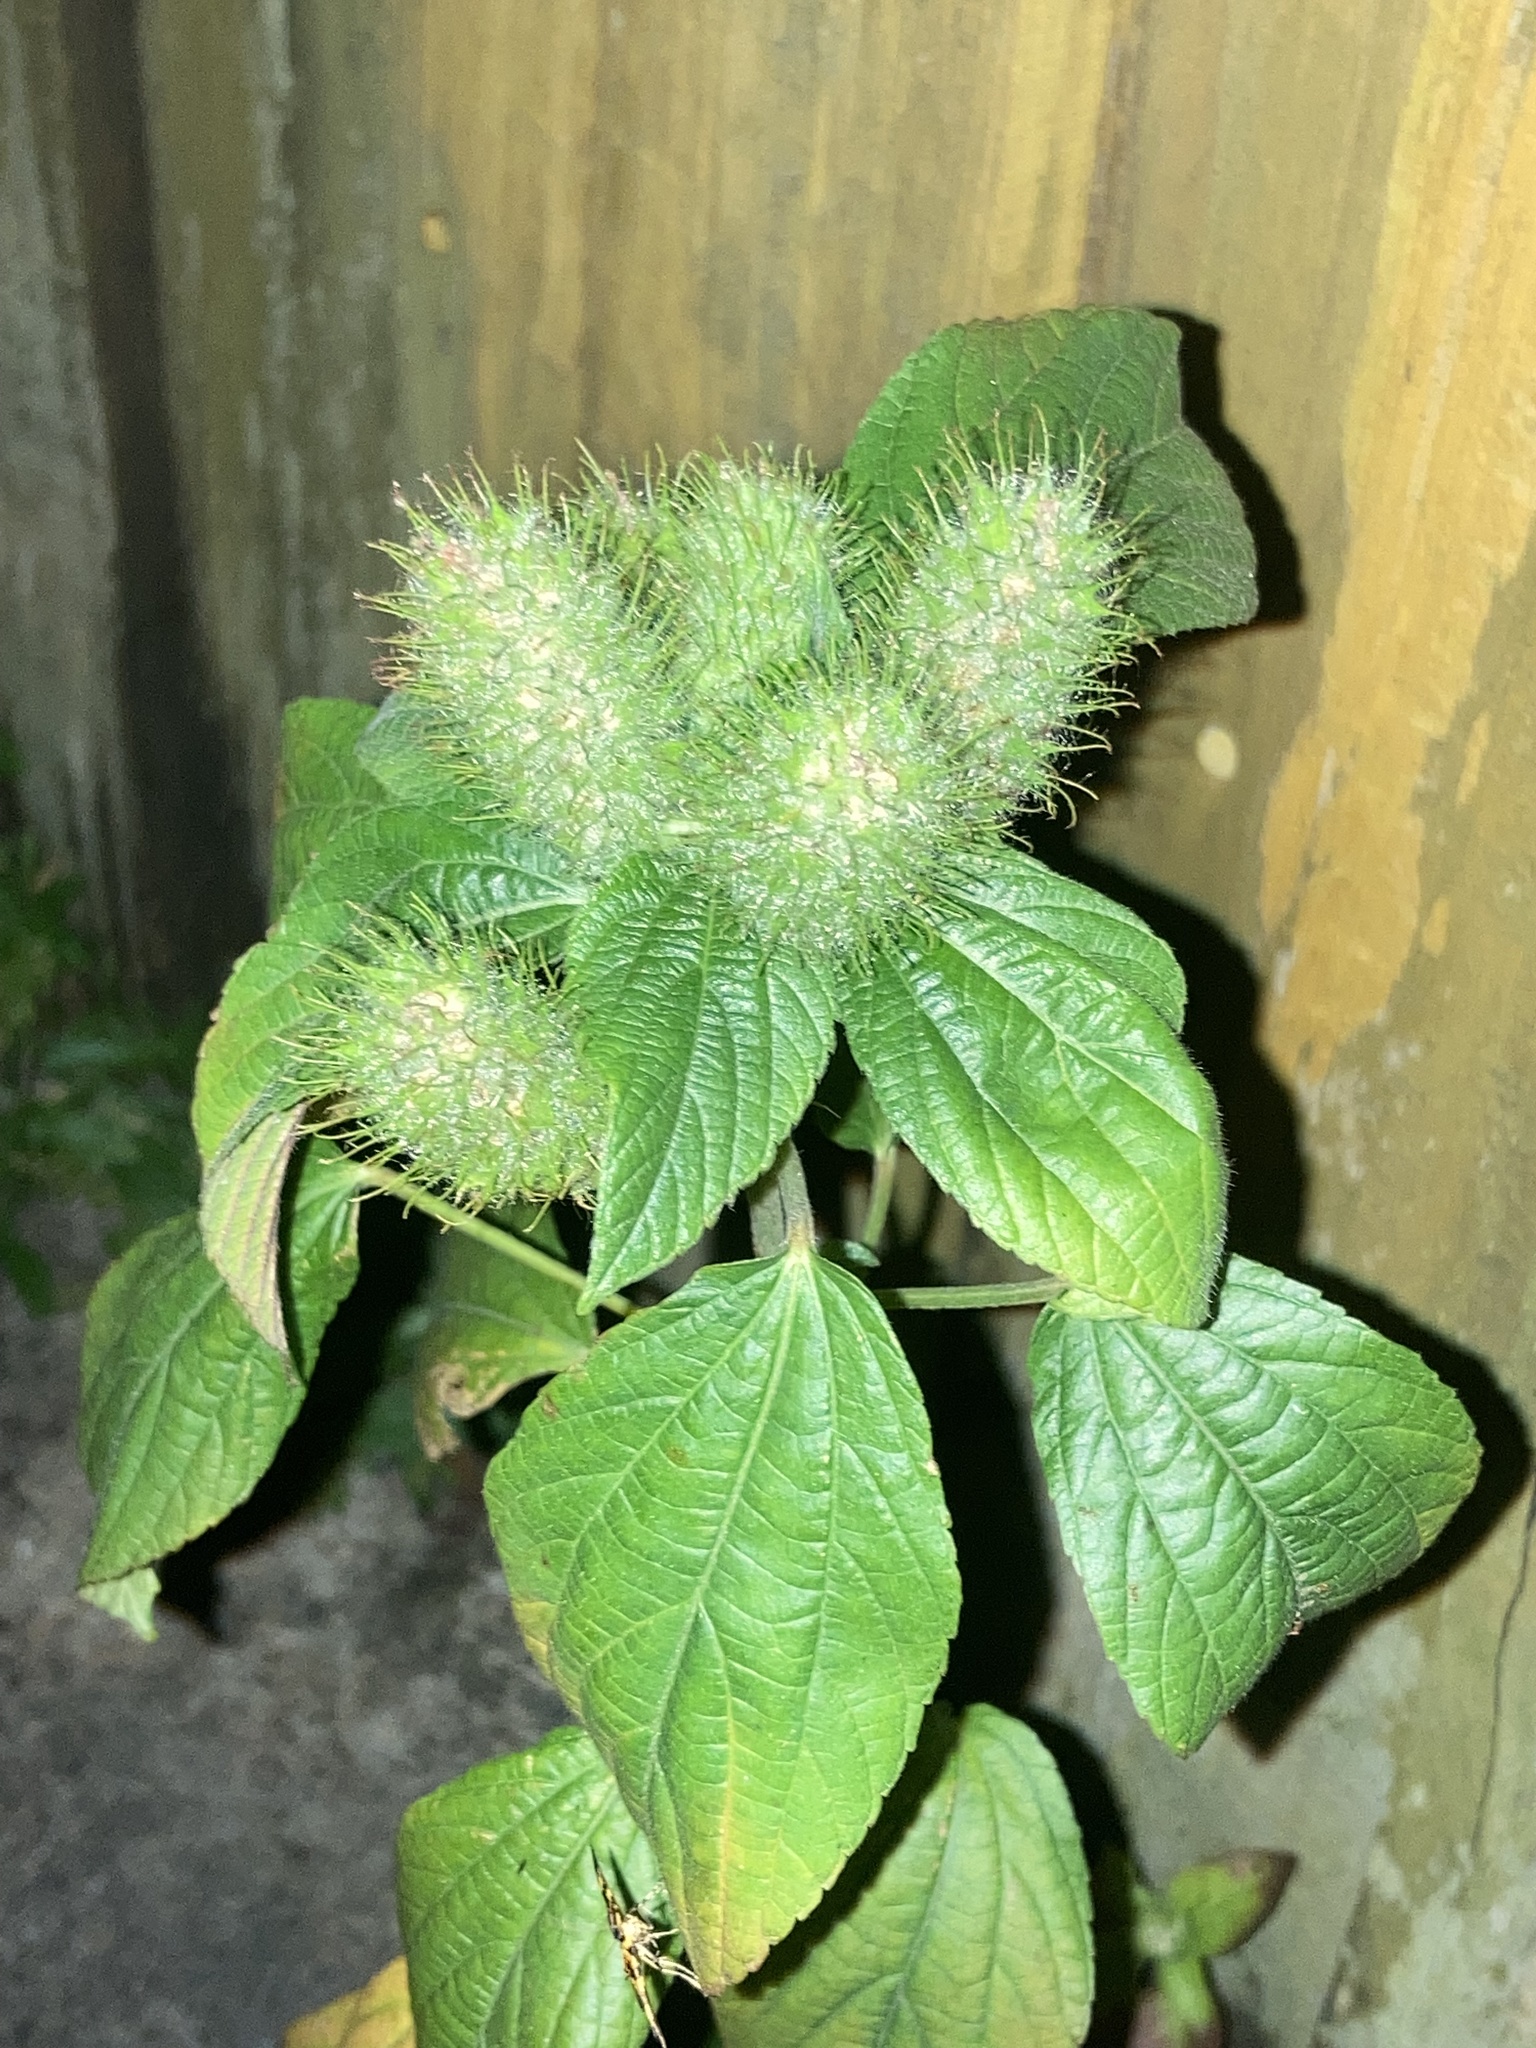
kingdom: Plantae
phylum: Tracheophyta
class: Magnoliopsida
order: Malpighiales
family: Euphorbiaceae
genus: Acalypha
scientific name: Acalypha arvensis
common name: Field copperleaf
